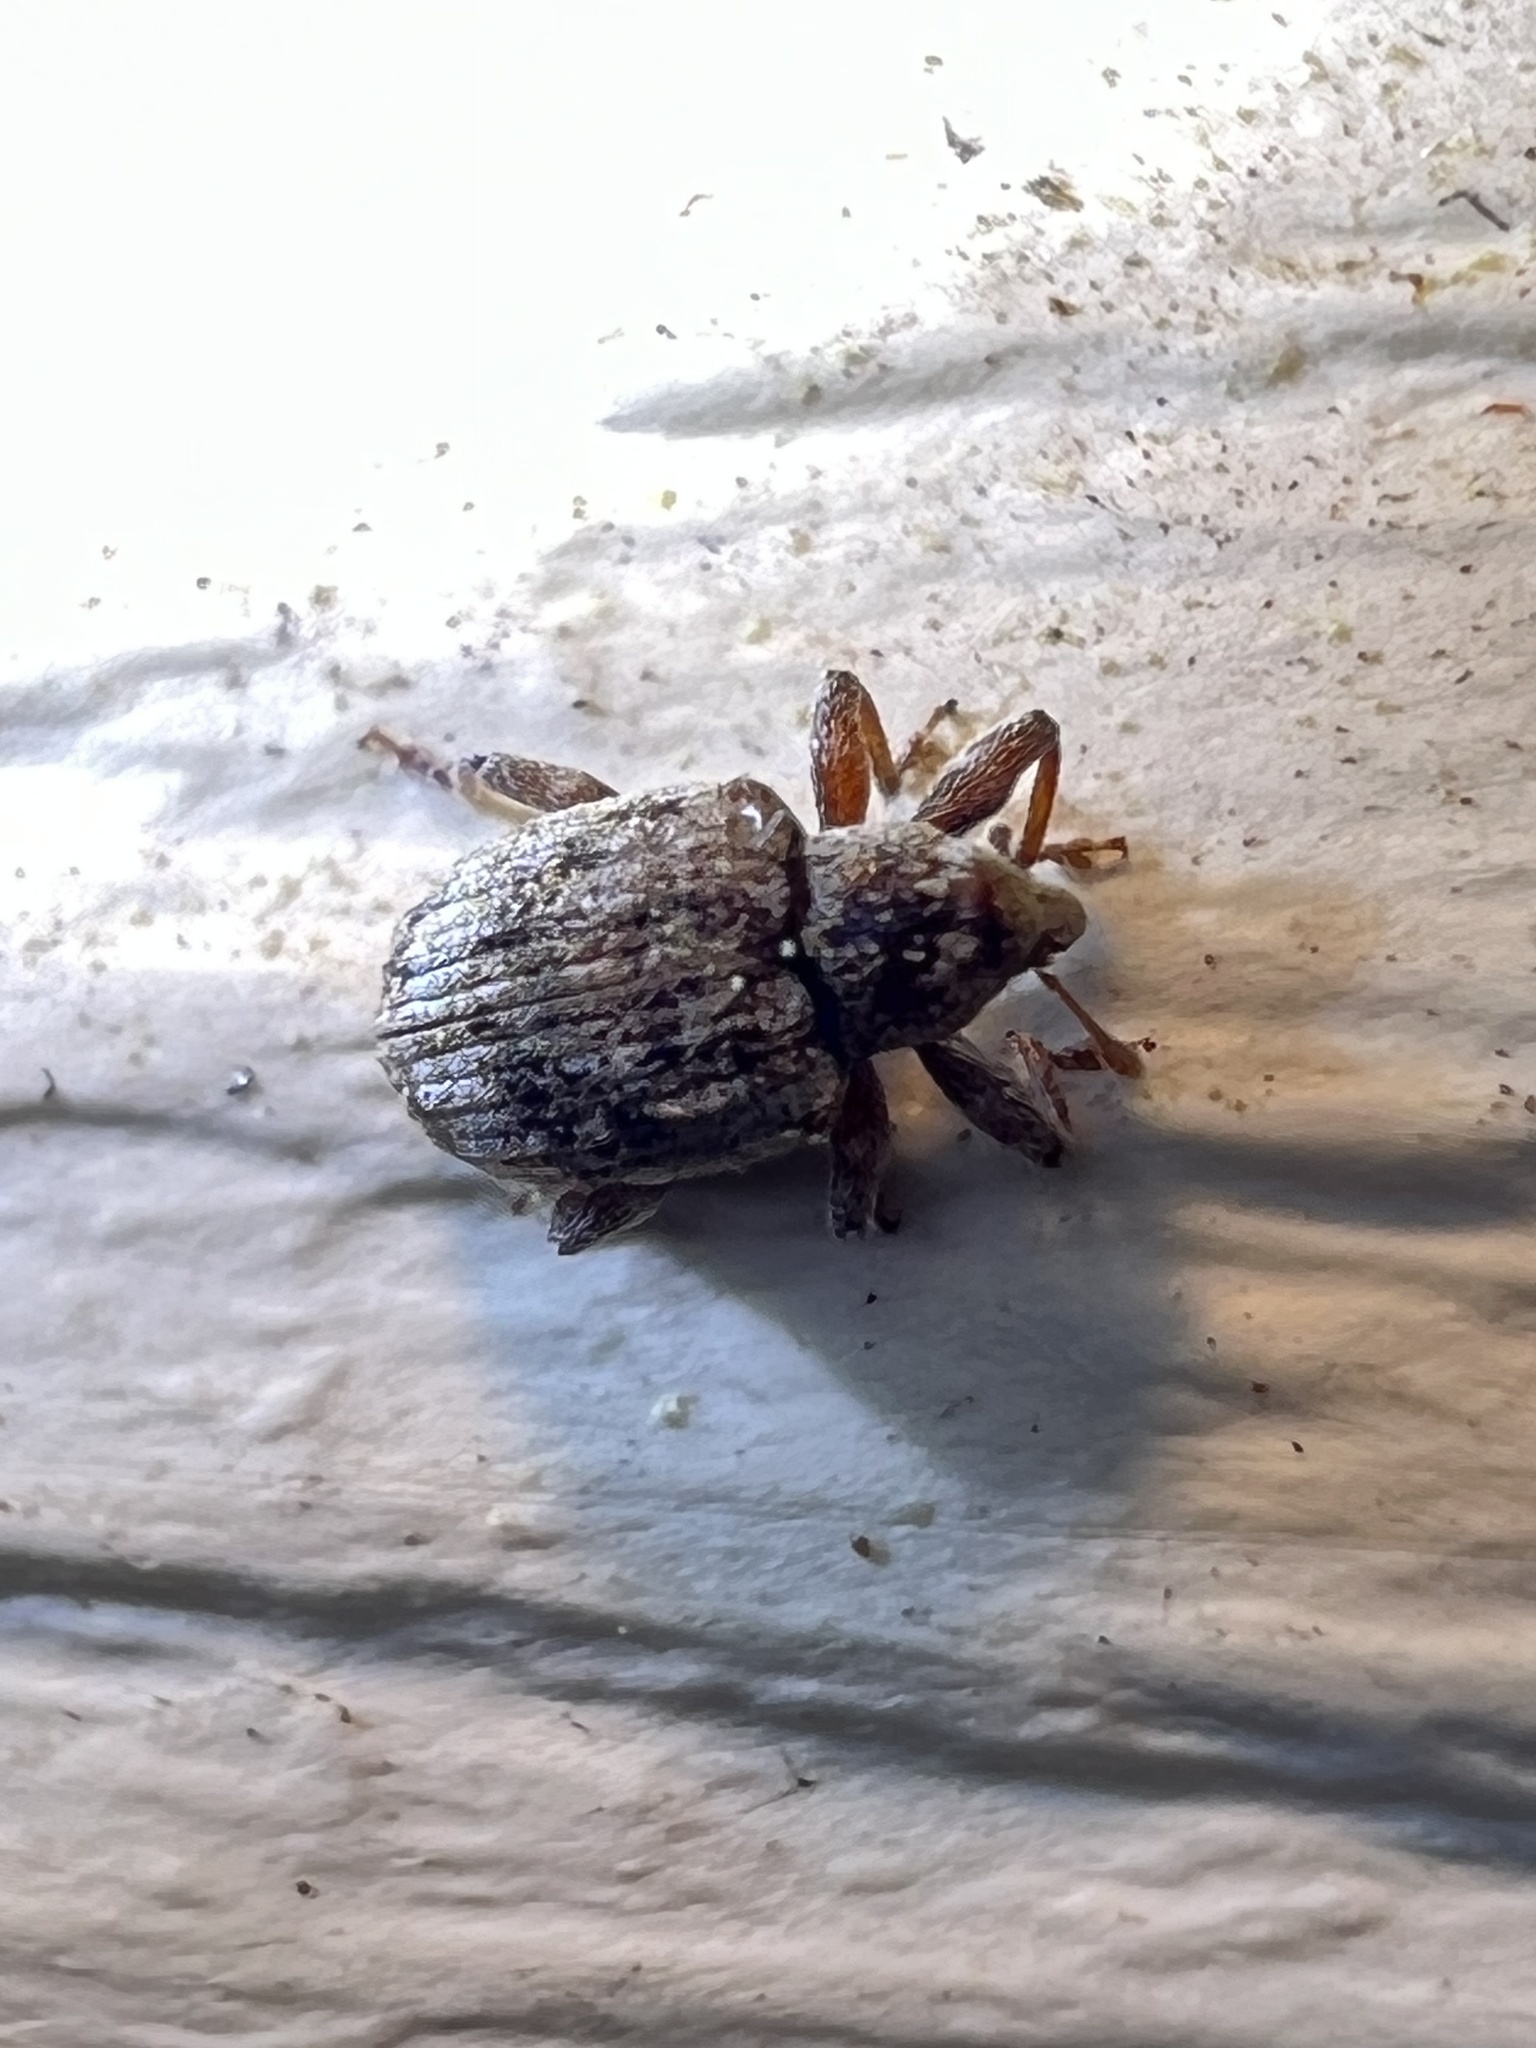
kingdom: Animalia
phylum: Arthropoda
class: Insecta
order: Coleoptera
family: Curculionidae
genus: Conotrachelus
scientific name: Conotrachelus recessus
